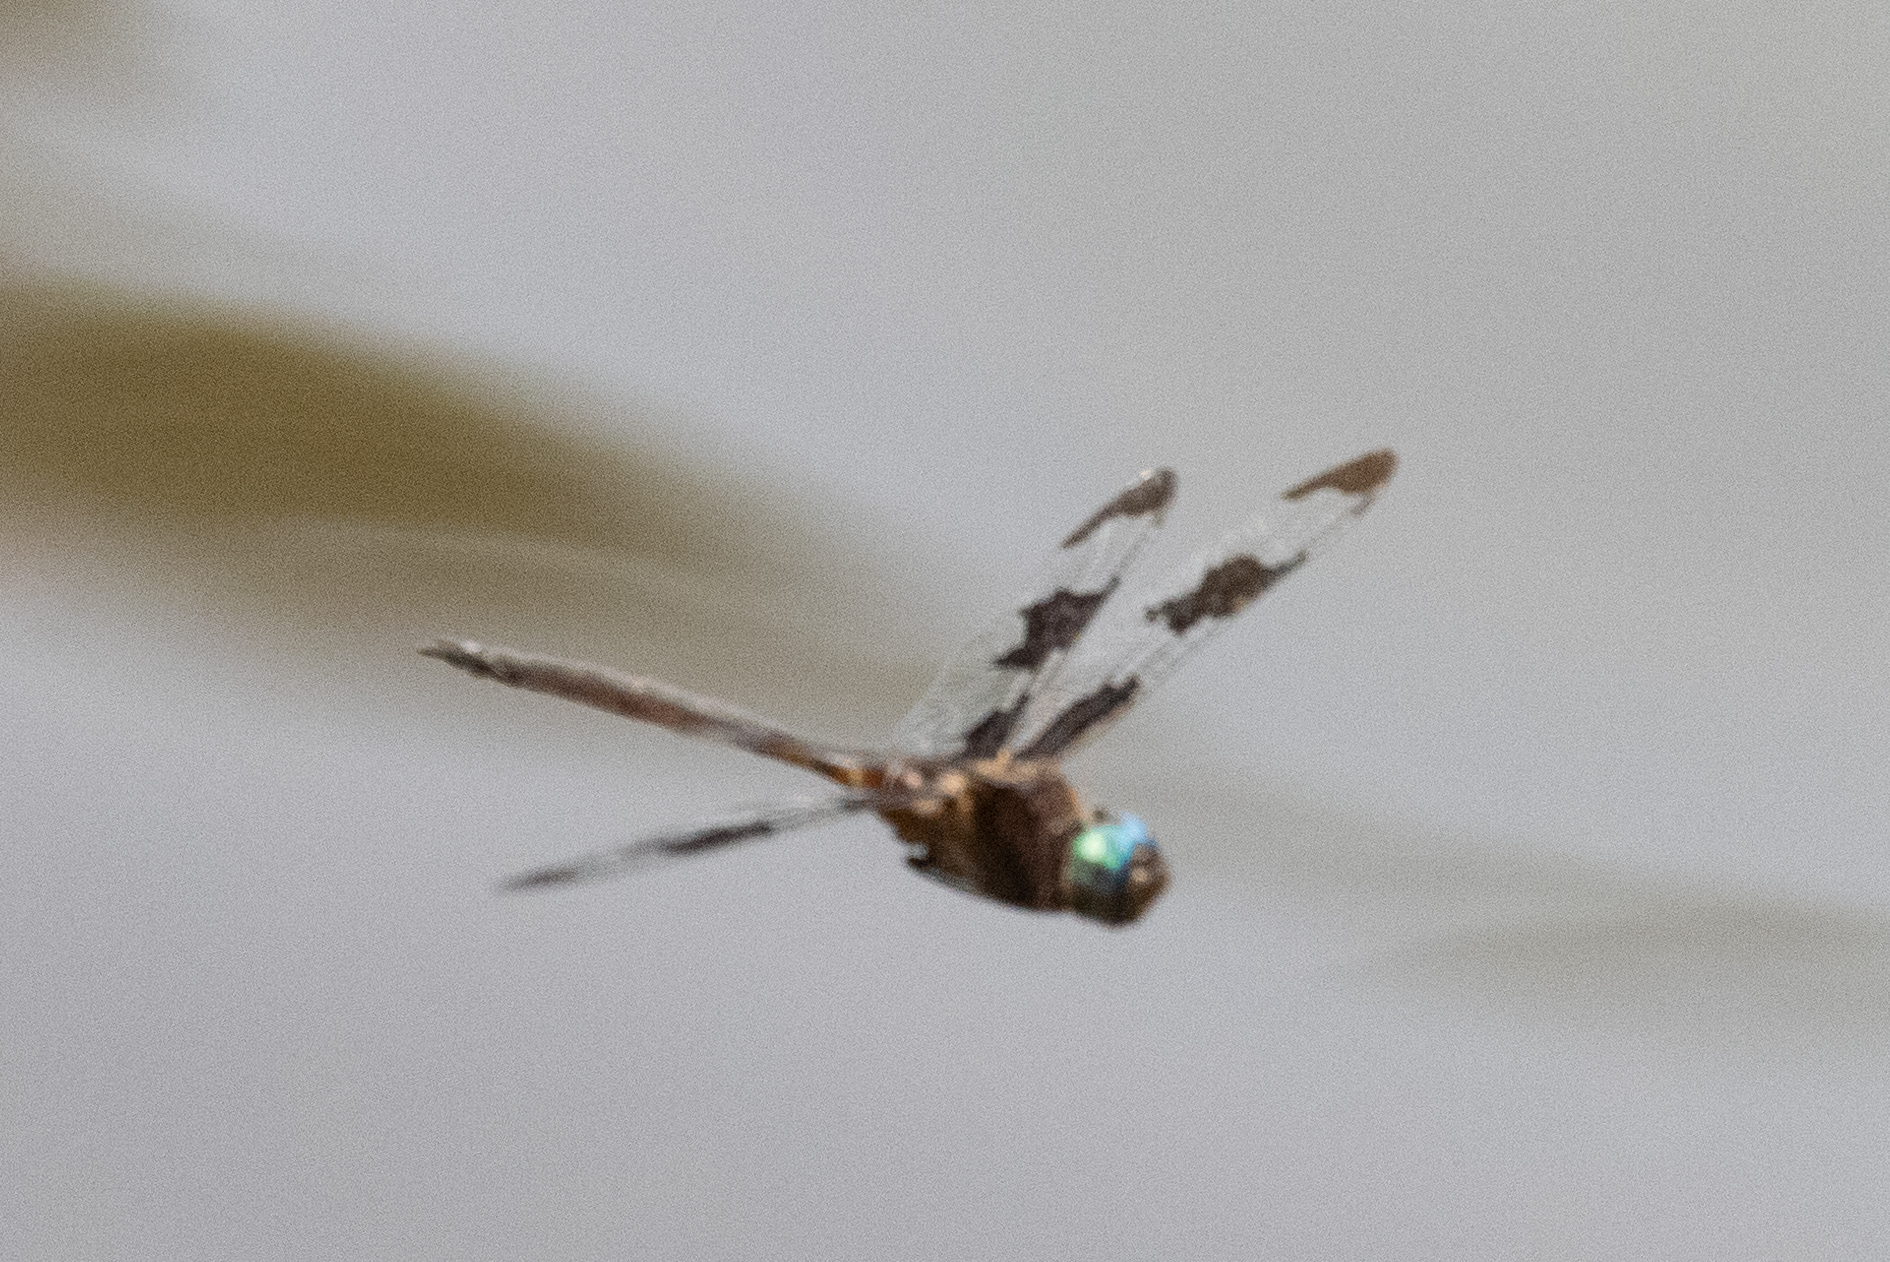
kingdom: Animalia
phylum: Arthropoda
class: Insecta
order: Odonata
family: Corduliidae
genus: Epitheca
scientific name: Epitheca princeps
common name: Prince baskettail
